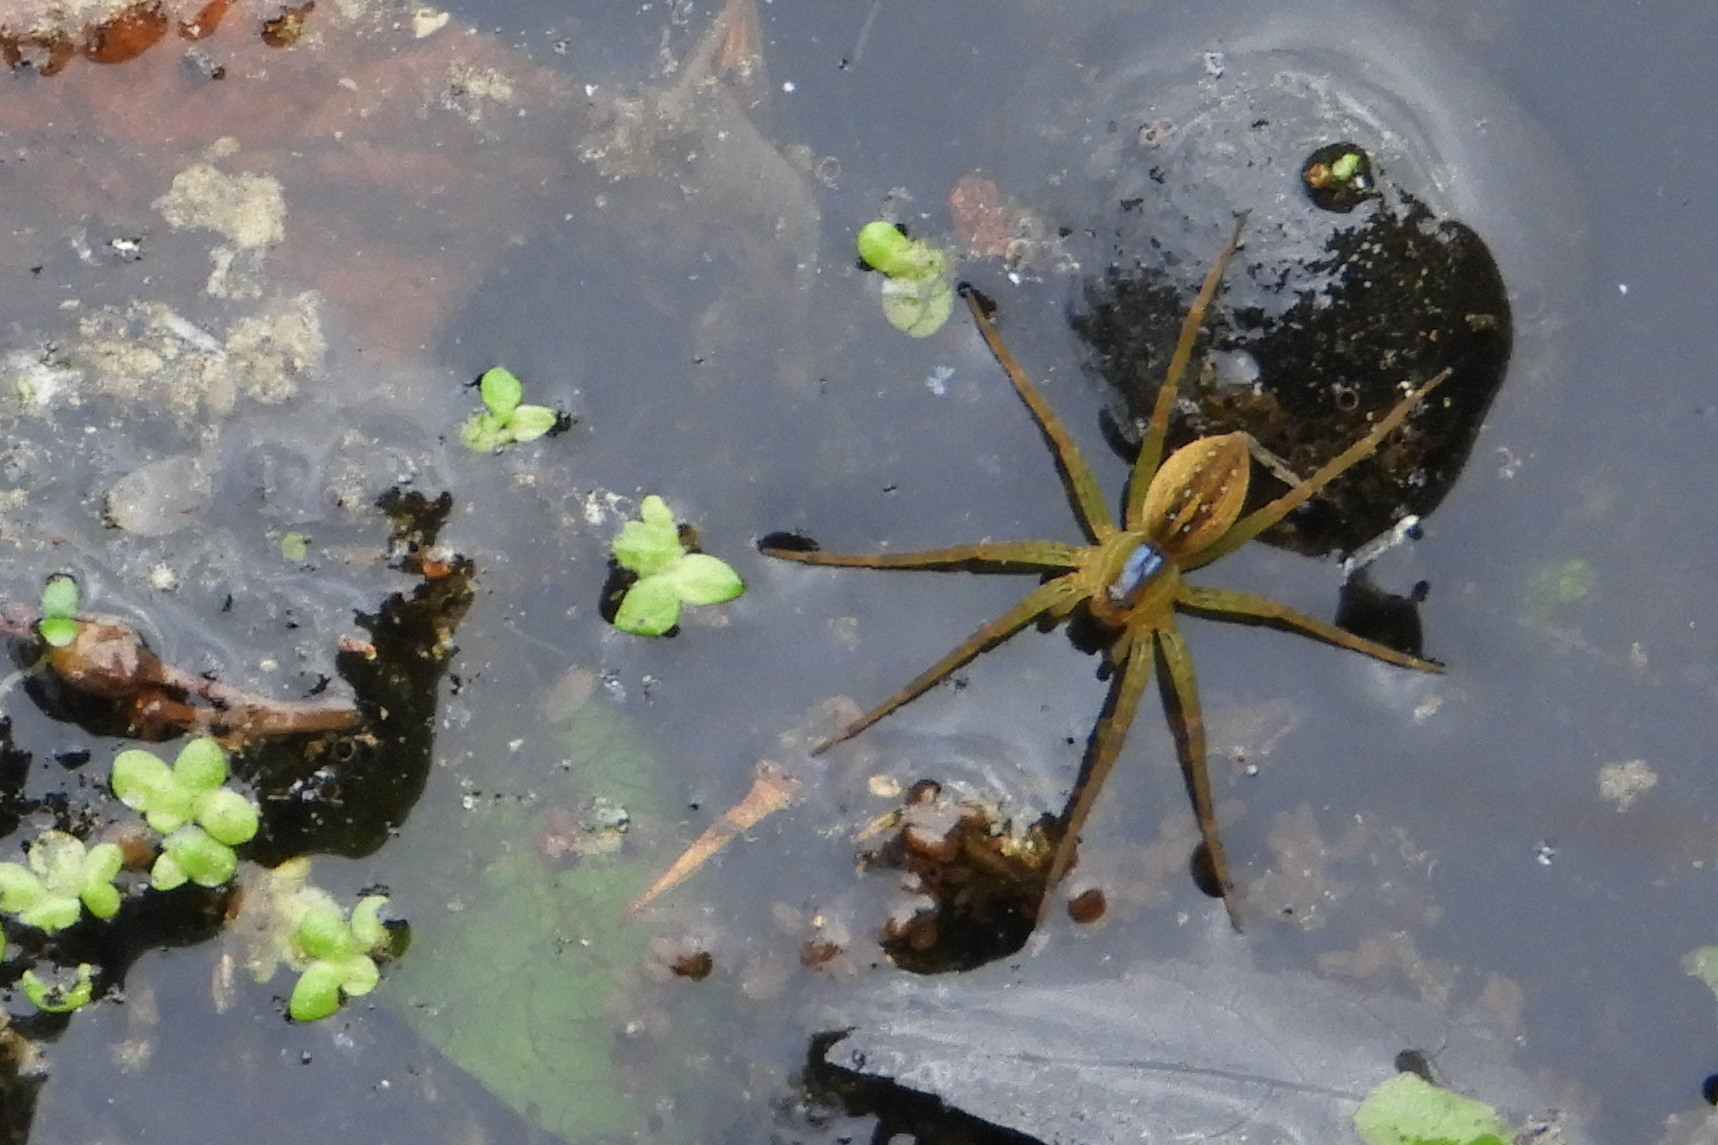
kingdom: Animalia
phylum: Arthropoda
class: Arachnida
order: Araneae
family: Pisauridae
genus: Dolomedes
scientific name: Dolomedes triton
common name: Six-spotted fishing spider
